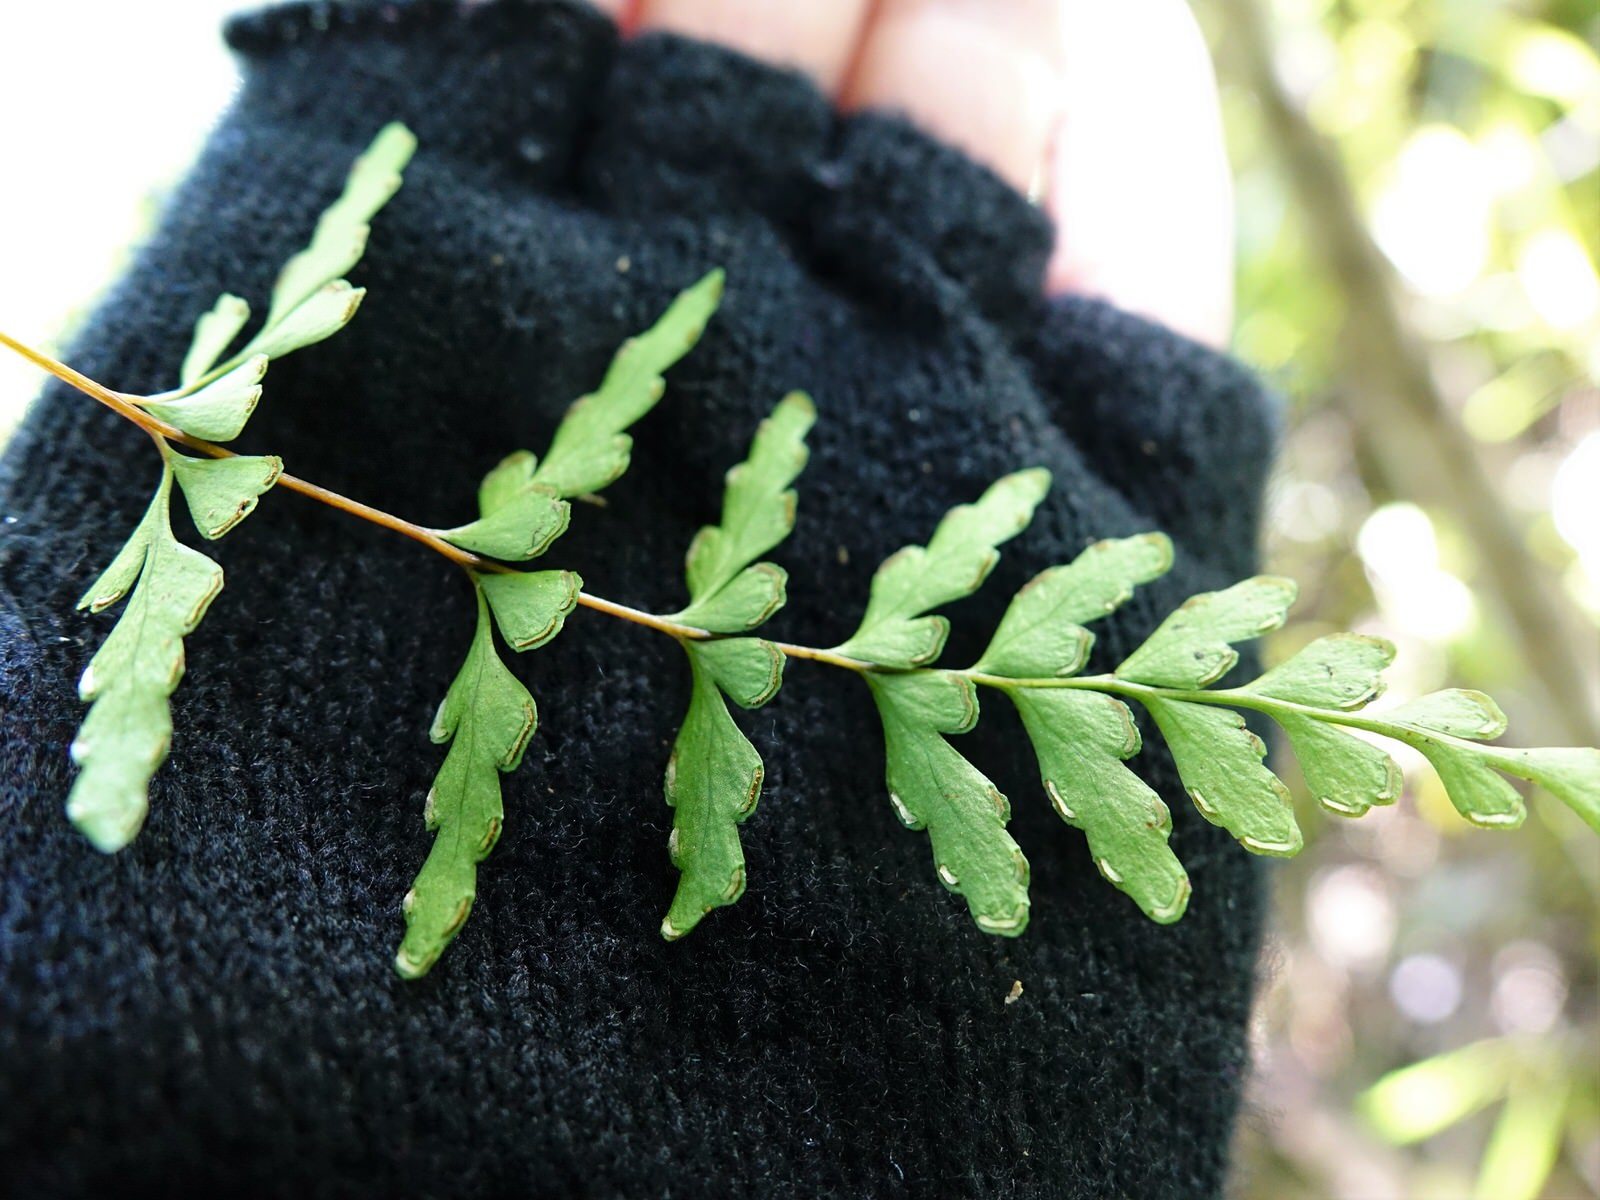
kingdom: Plantae
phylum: Tracheophyta
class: Polypodiopsida
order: Polypodiales
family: Lindsaeaceae
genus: Lindsaea
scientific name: Lindsaea trichomanoides
